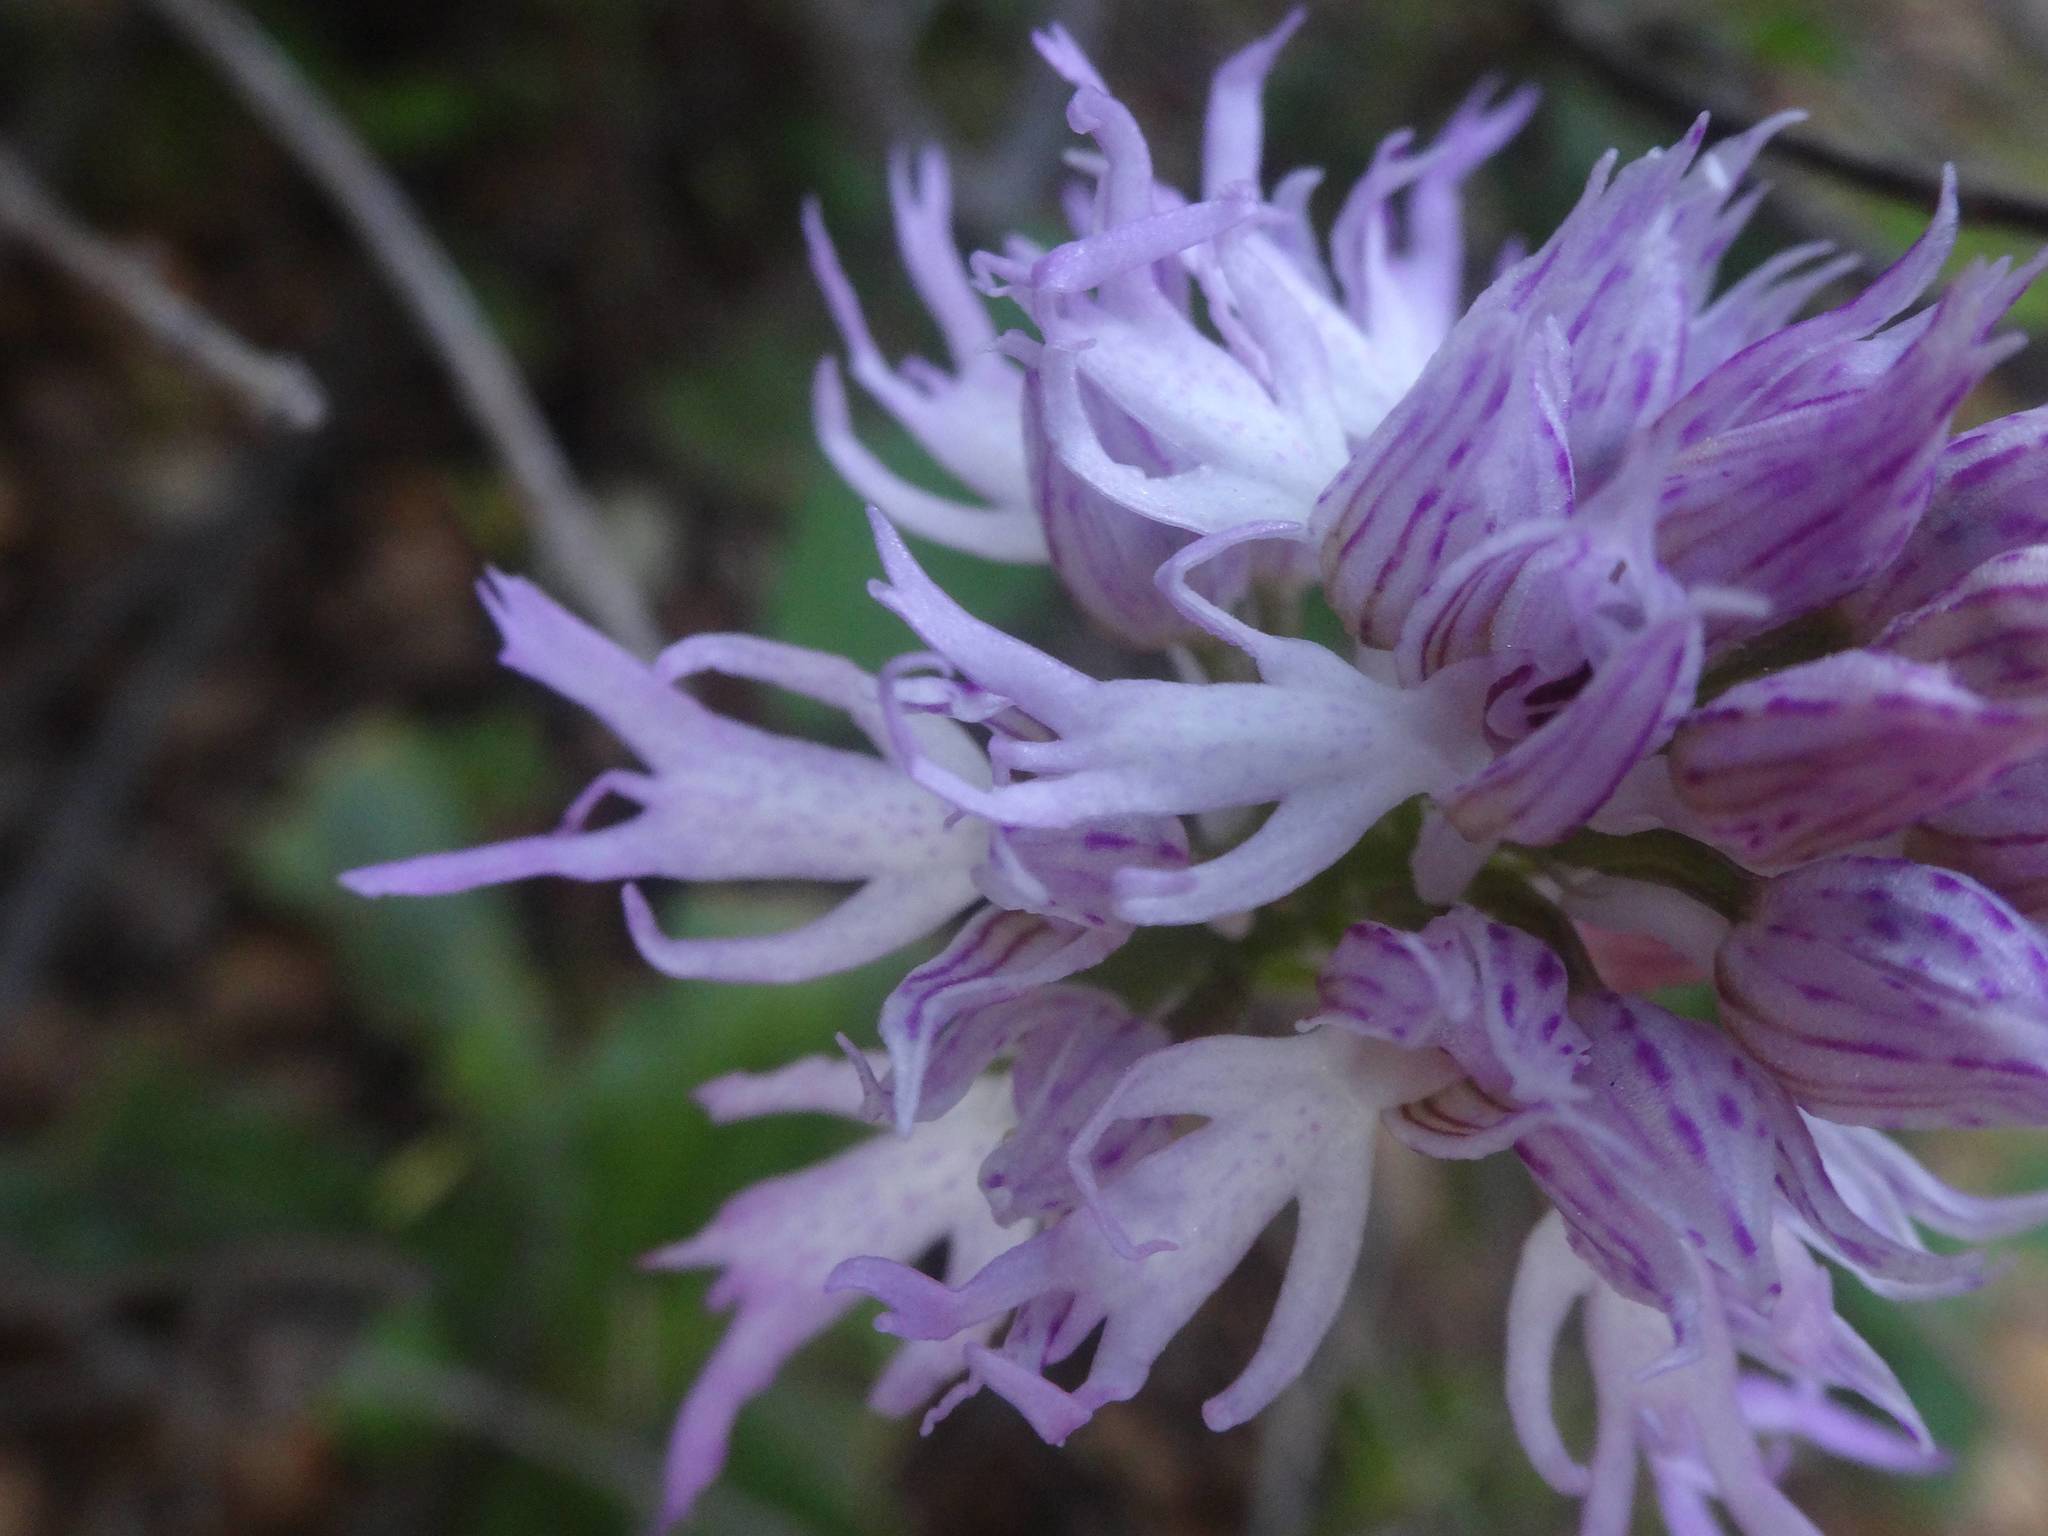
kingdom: Plantae
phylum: Tracheophyta
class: Liliopsida
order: Asparagales
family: Orchidaceae
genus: Orchis
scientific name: Orchis italica
